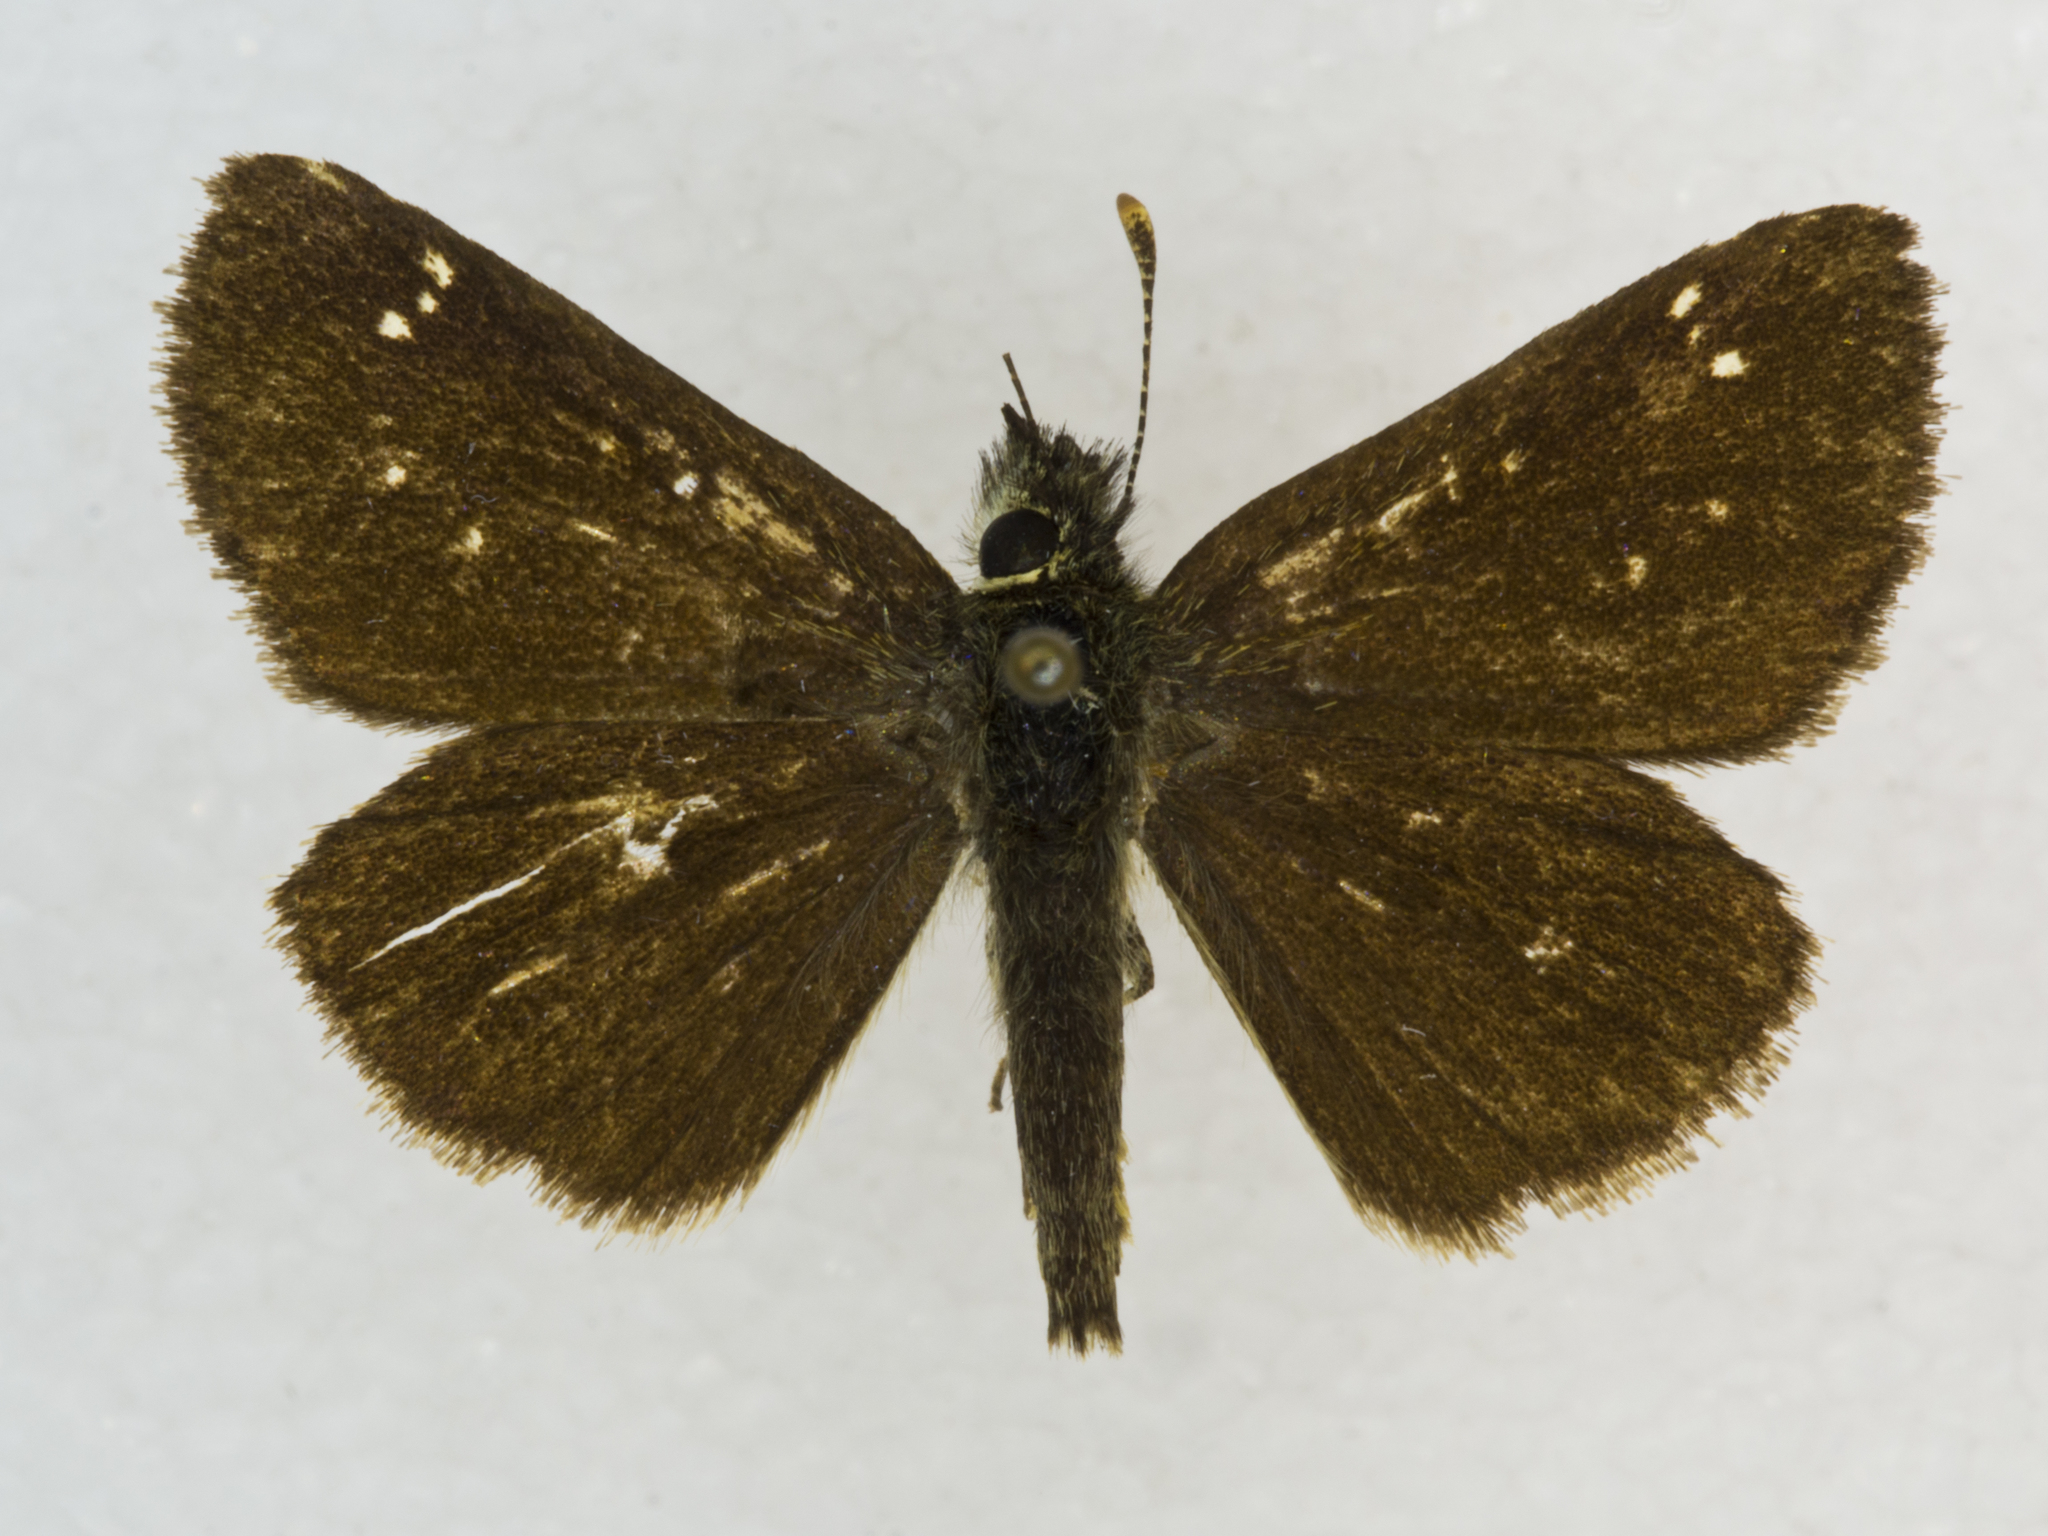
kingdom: Animalia
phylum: Arthropoda
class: Insecta
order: Lepidoptera
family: Hesperiidae
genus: Piruna
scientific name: Piruna pirus
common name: Russet skipperling
